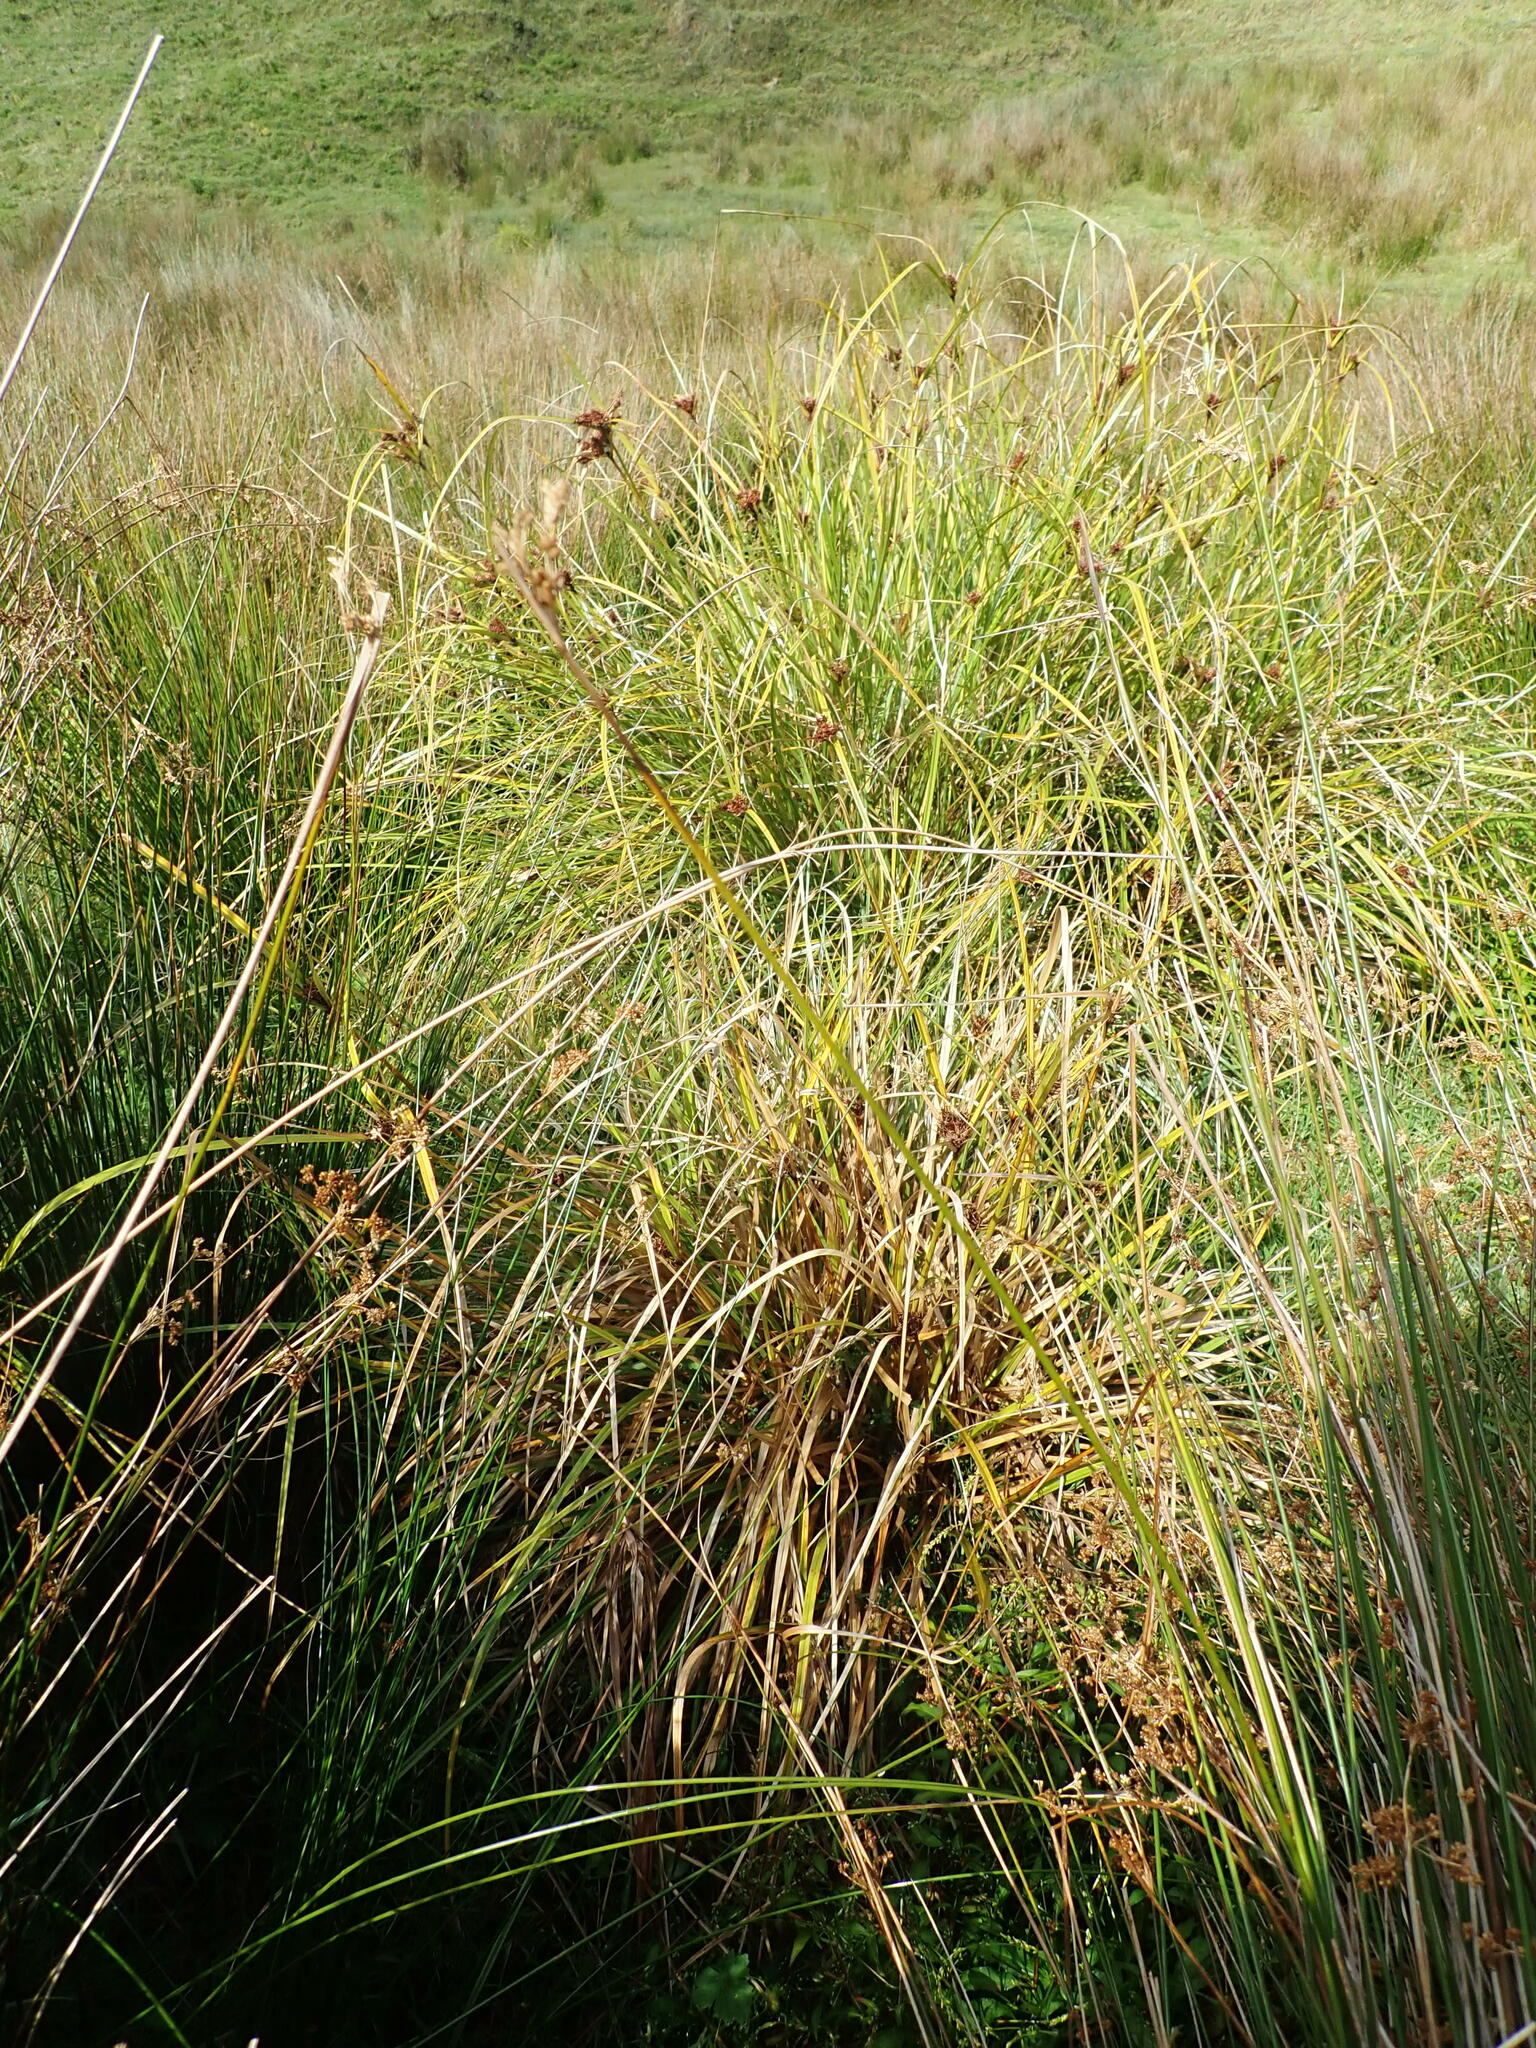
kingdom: Plantae
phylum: Tracheophyta
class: Liliopsida
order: Poales
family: Cyperaceae
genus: Cyperus
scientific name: Cyperus ustulatus
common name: Giant umbrella-sedge
